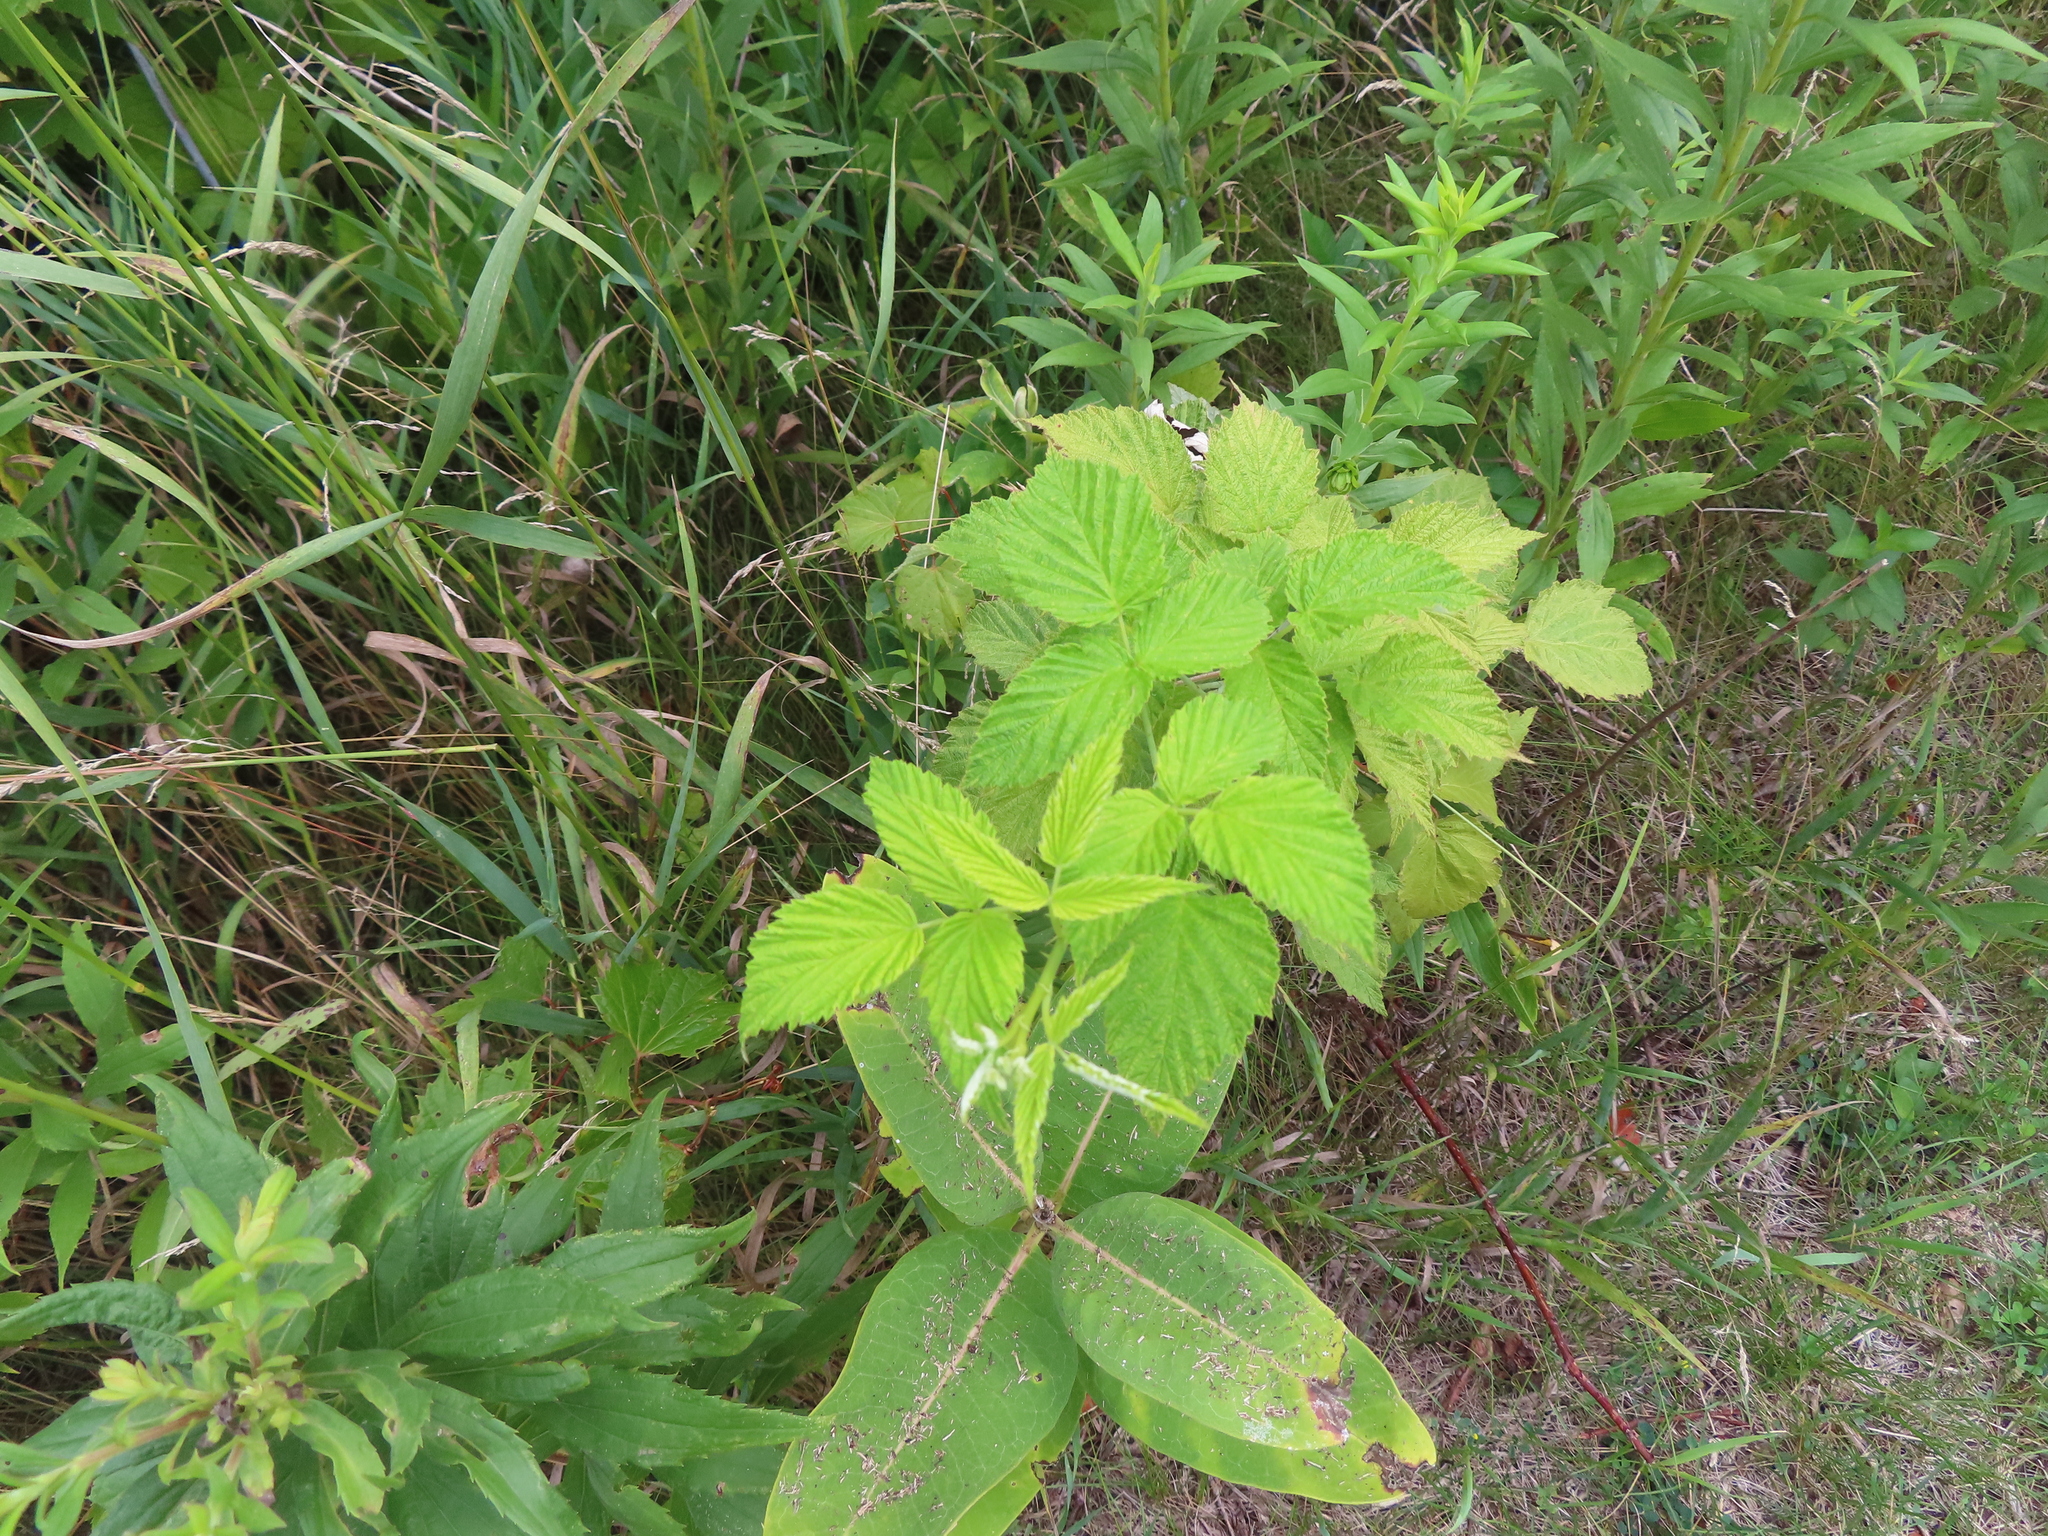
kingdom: Plantae
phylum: Tracheophyta
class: Magnoliopsida
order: Rosales
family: Rosaceae
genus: Rubus
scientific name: Rubus occidentalis
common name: Black raspberry
